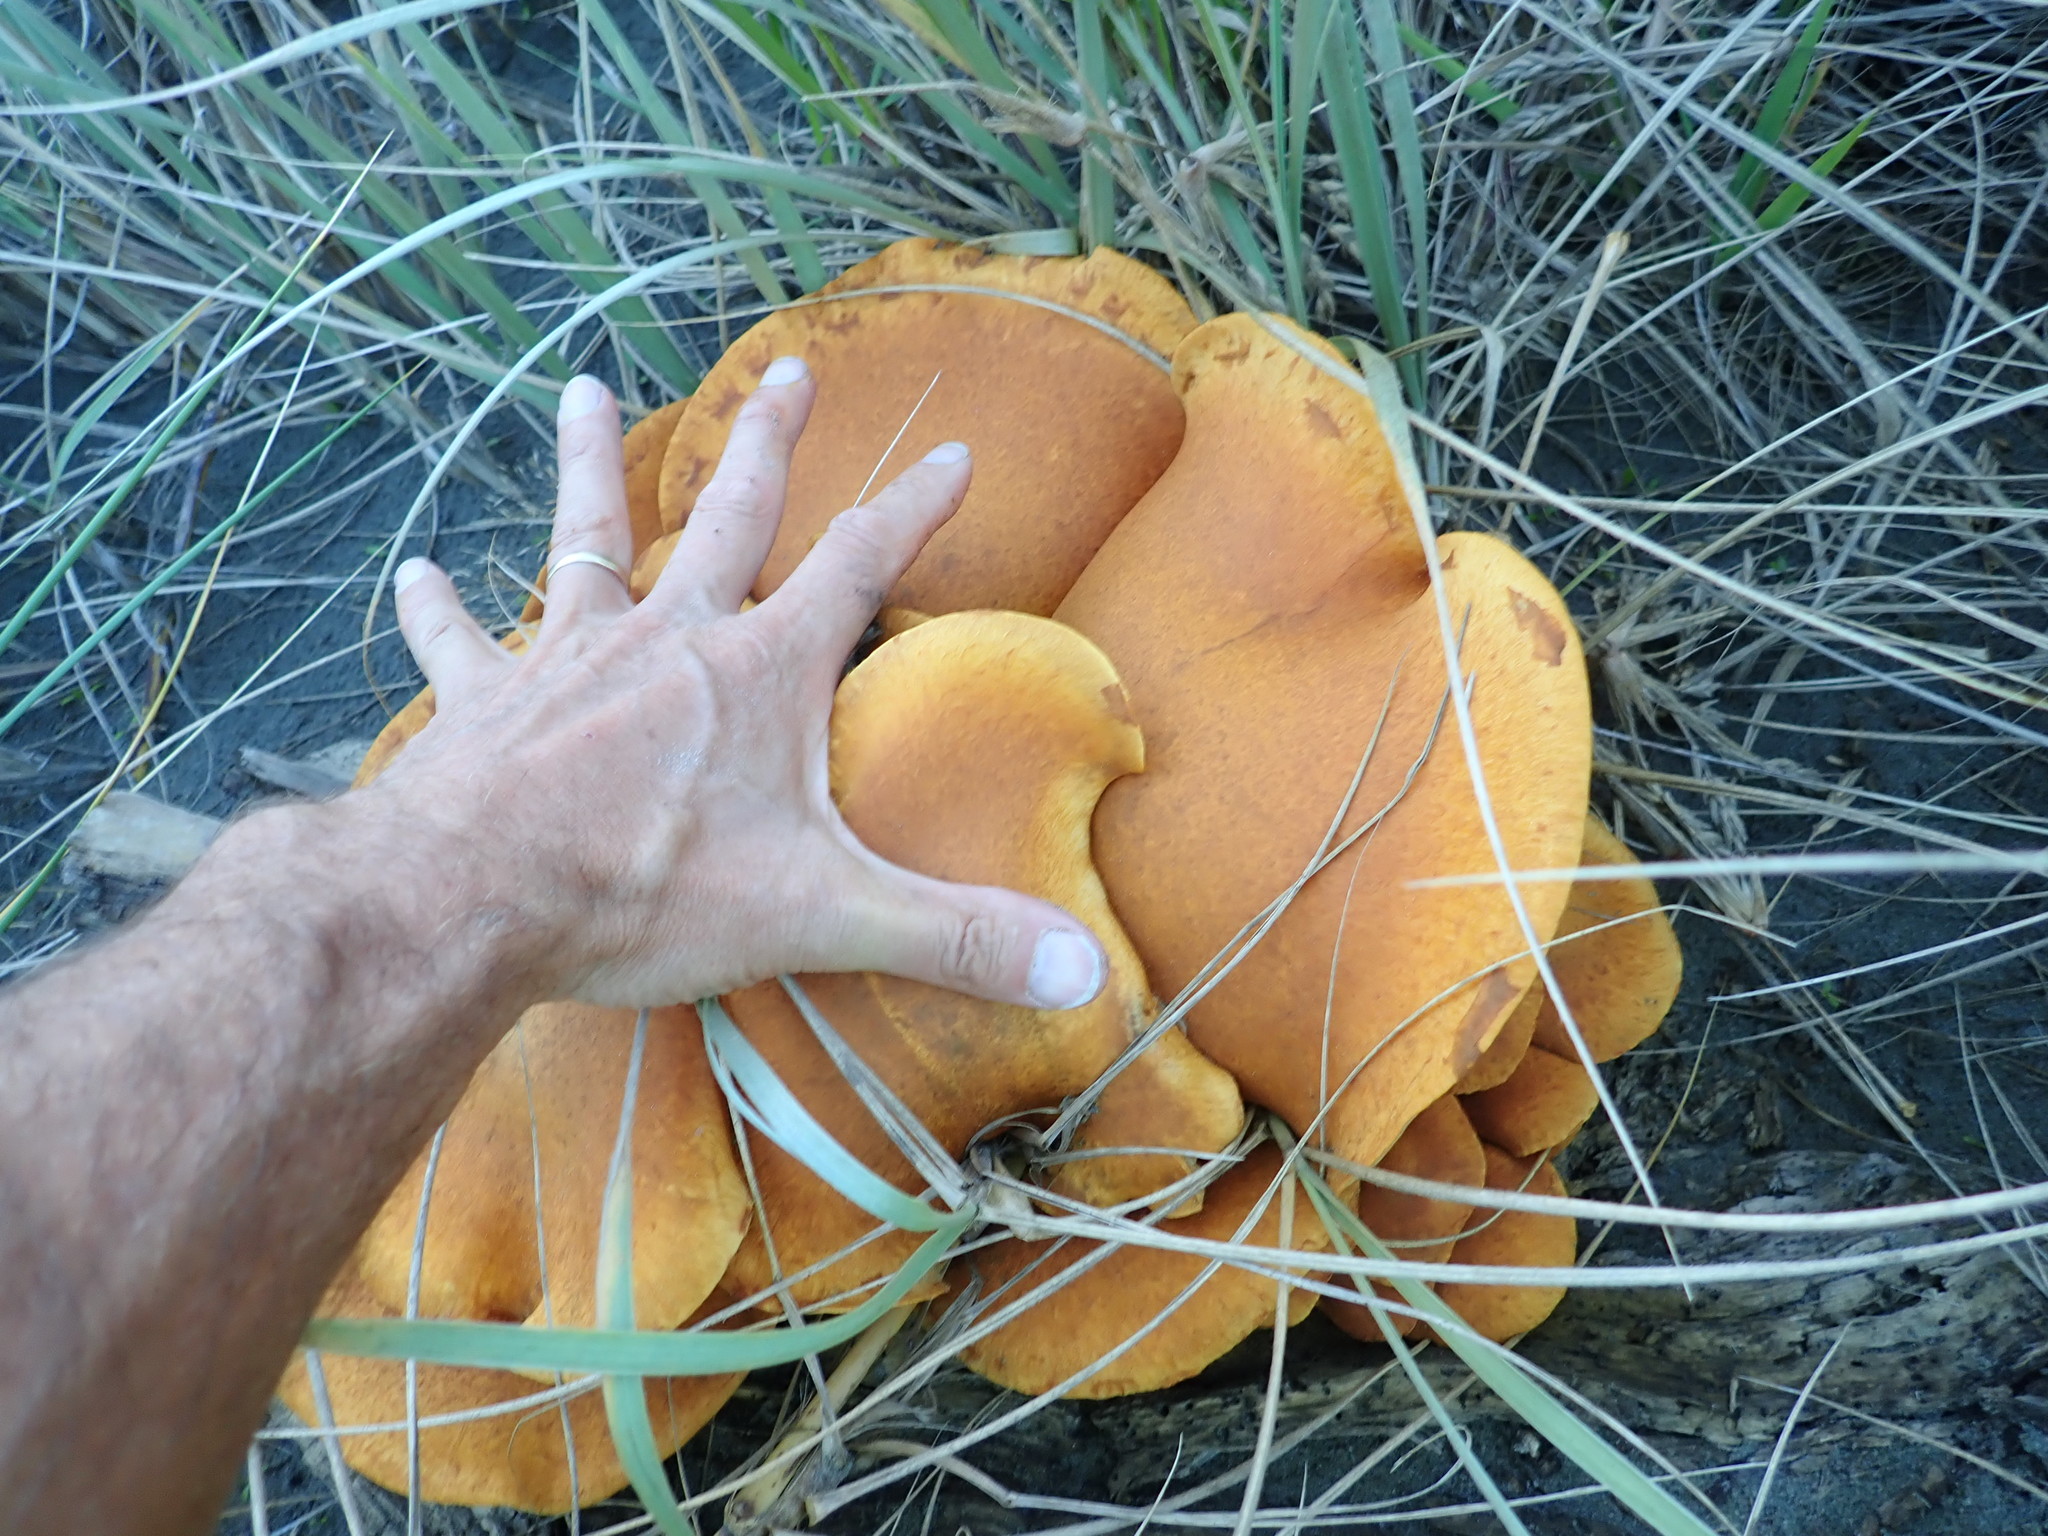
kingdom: Fungi
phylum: Basidiomycota
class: Agaricomycetes
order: Agaricales
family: Hymenogastraceae
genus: Gymnopilus
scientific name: Gymnopilus junonius
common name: Spectacular rustgill
